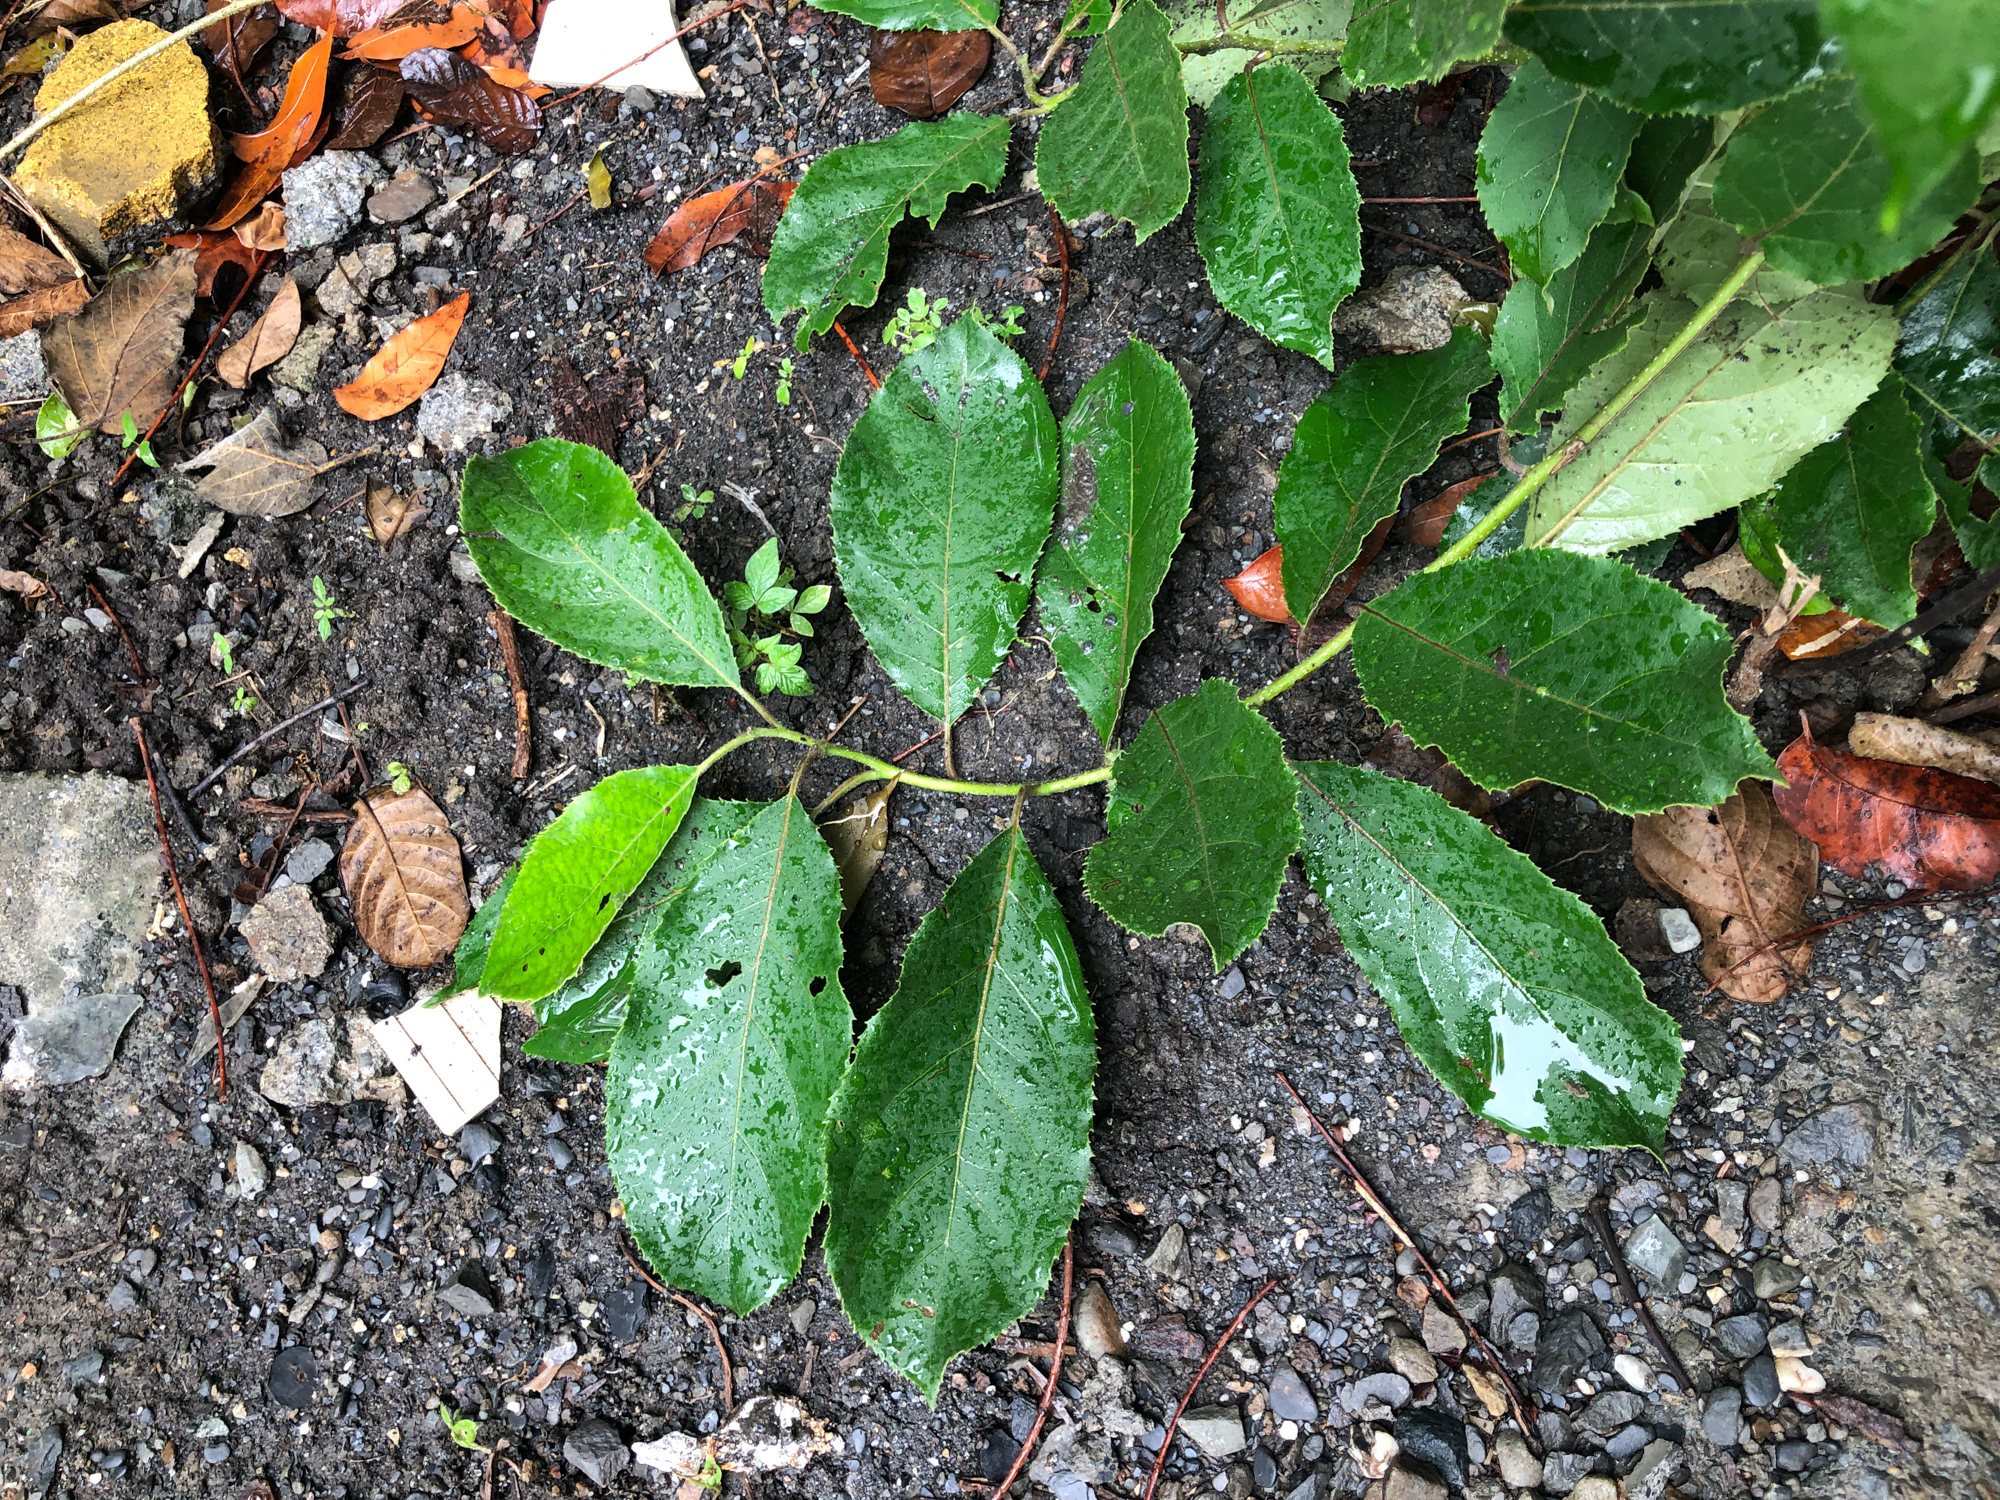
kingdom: Plantae
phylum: Tracheophyta
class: Magnoliopsida
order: Boraginales
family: Ehretiaceae
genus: Ehretia
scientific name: Ehretia acuminata
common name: Kodo wood
